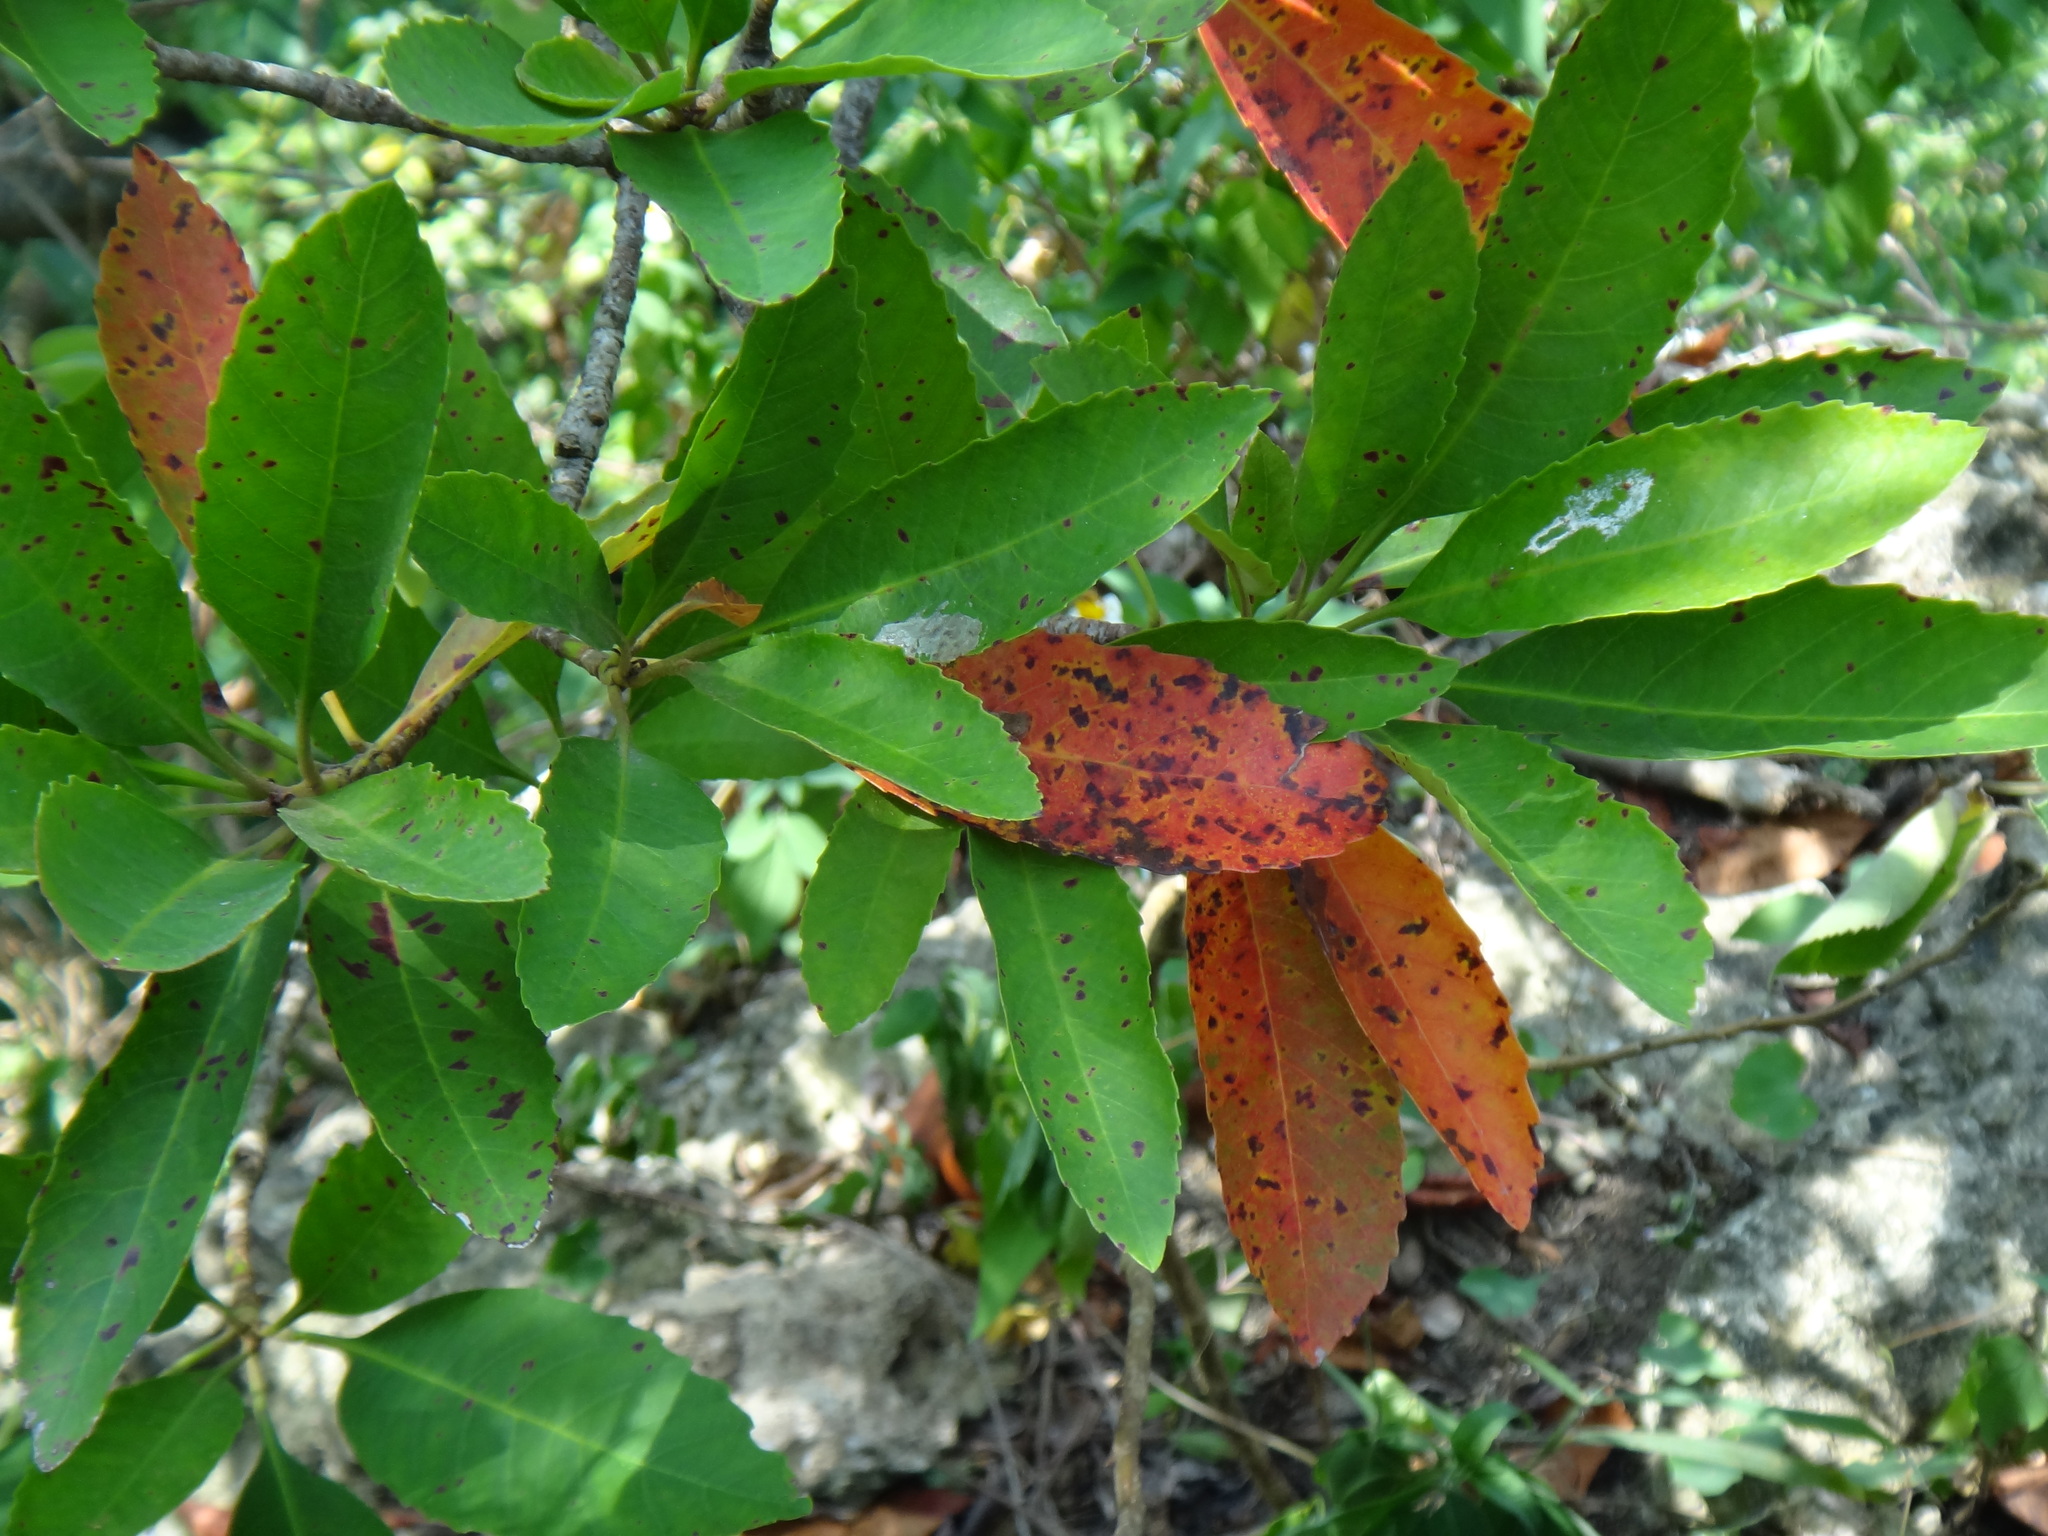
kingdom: Plantae
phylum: Tracheophyta
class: Magnoliopsida
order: Rosales
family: Rosaceae
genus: Rhaphiolepis
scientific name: Rhaphiolepis deflexa
